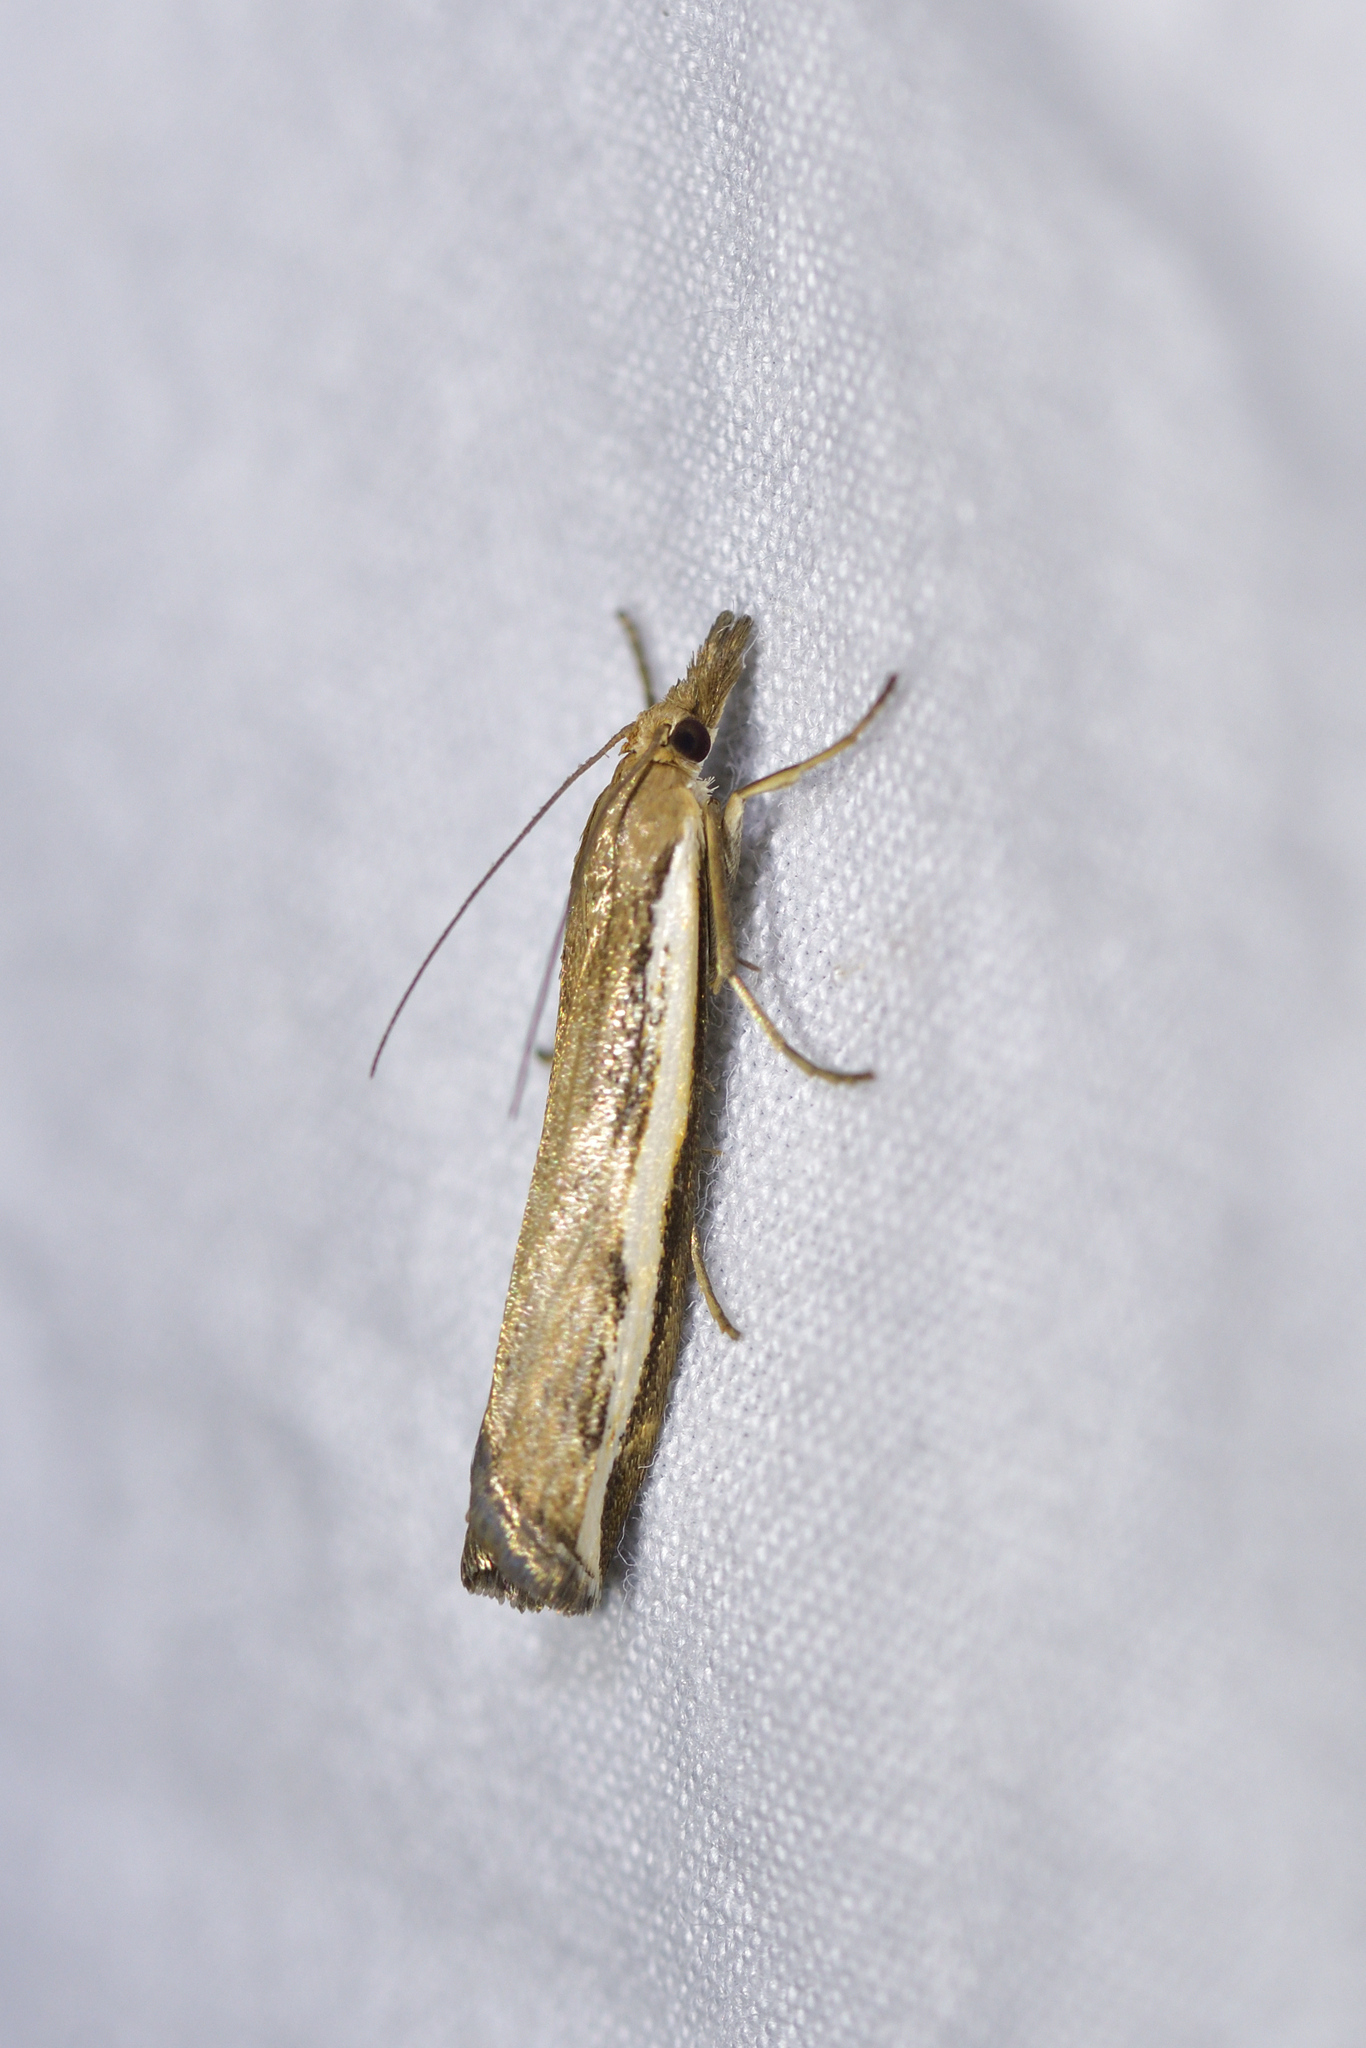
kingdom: Animalia
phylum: Arthropoda
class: Insecta
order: Lepidoptera
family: Crambidae
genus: Orocrambus
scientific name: Orocrambus flexuosellus
